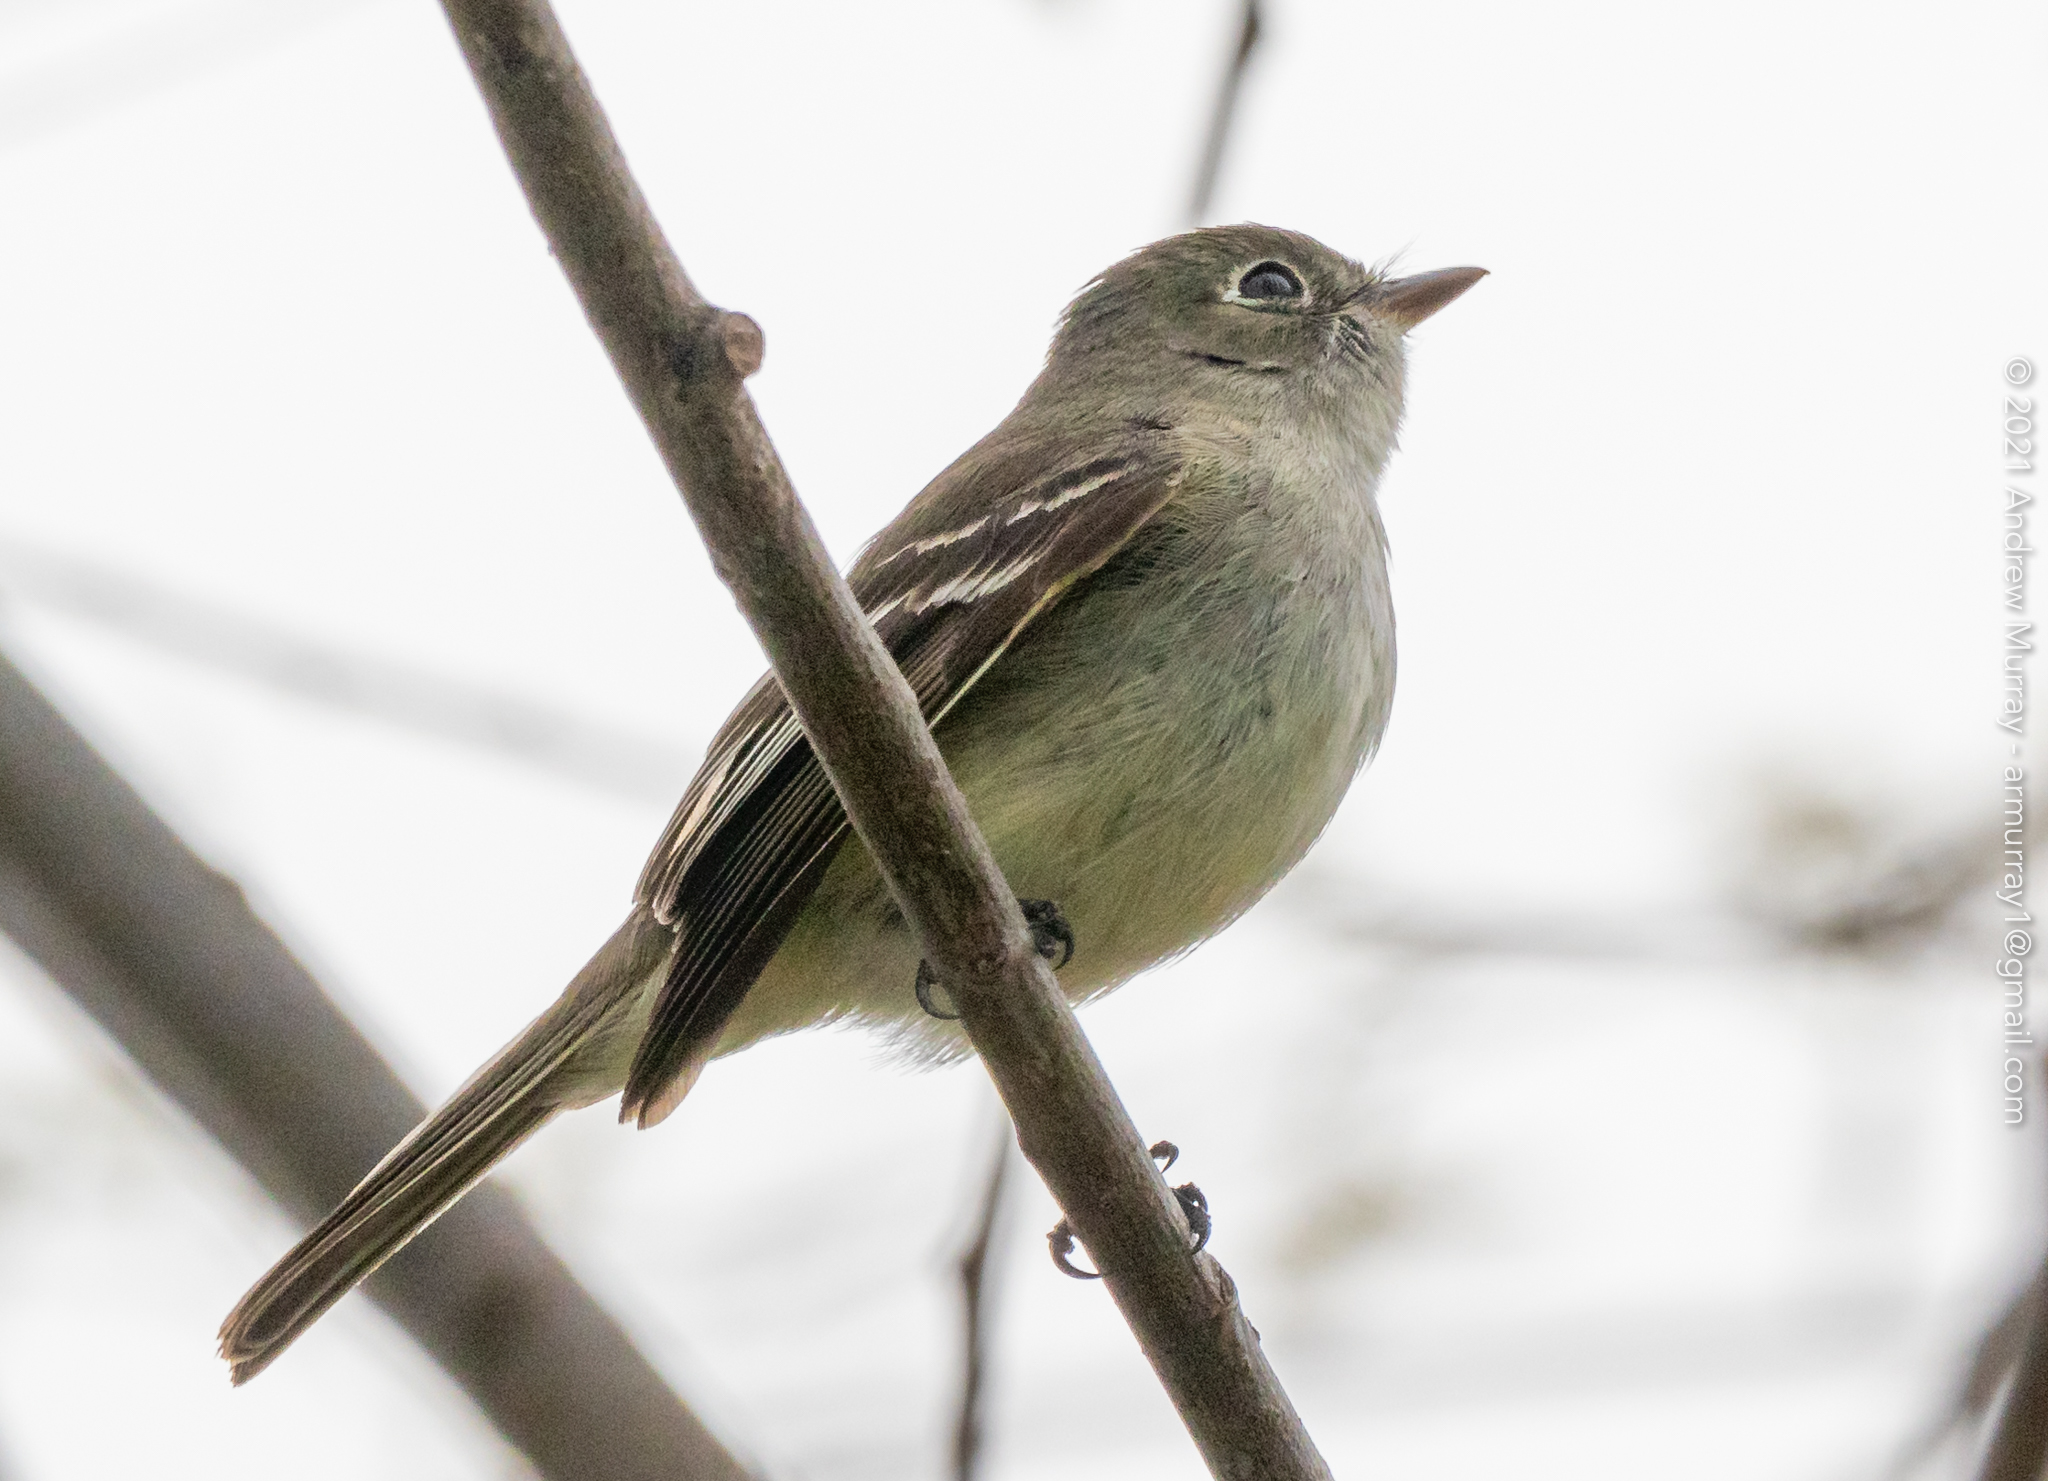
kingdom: Animalia
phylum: Chordata
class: Aves
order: Passeriformes
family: Tyrannidae
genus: Empidonax
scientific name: Empidonax minimus
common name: Least flycatcher
